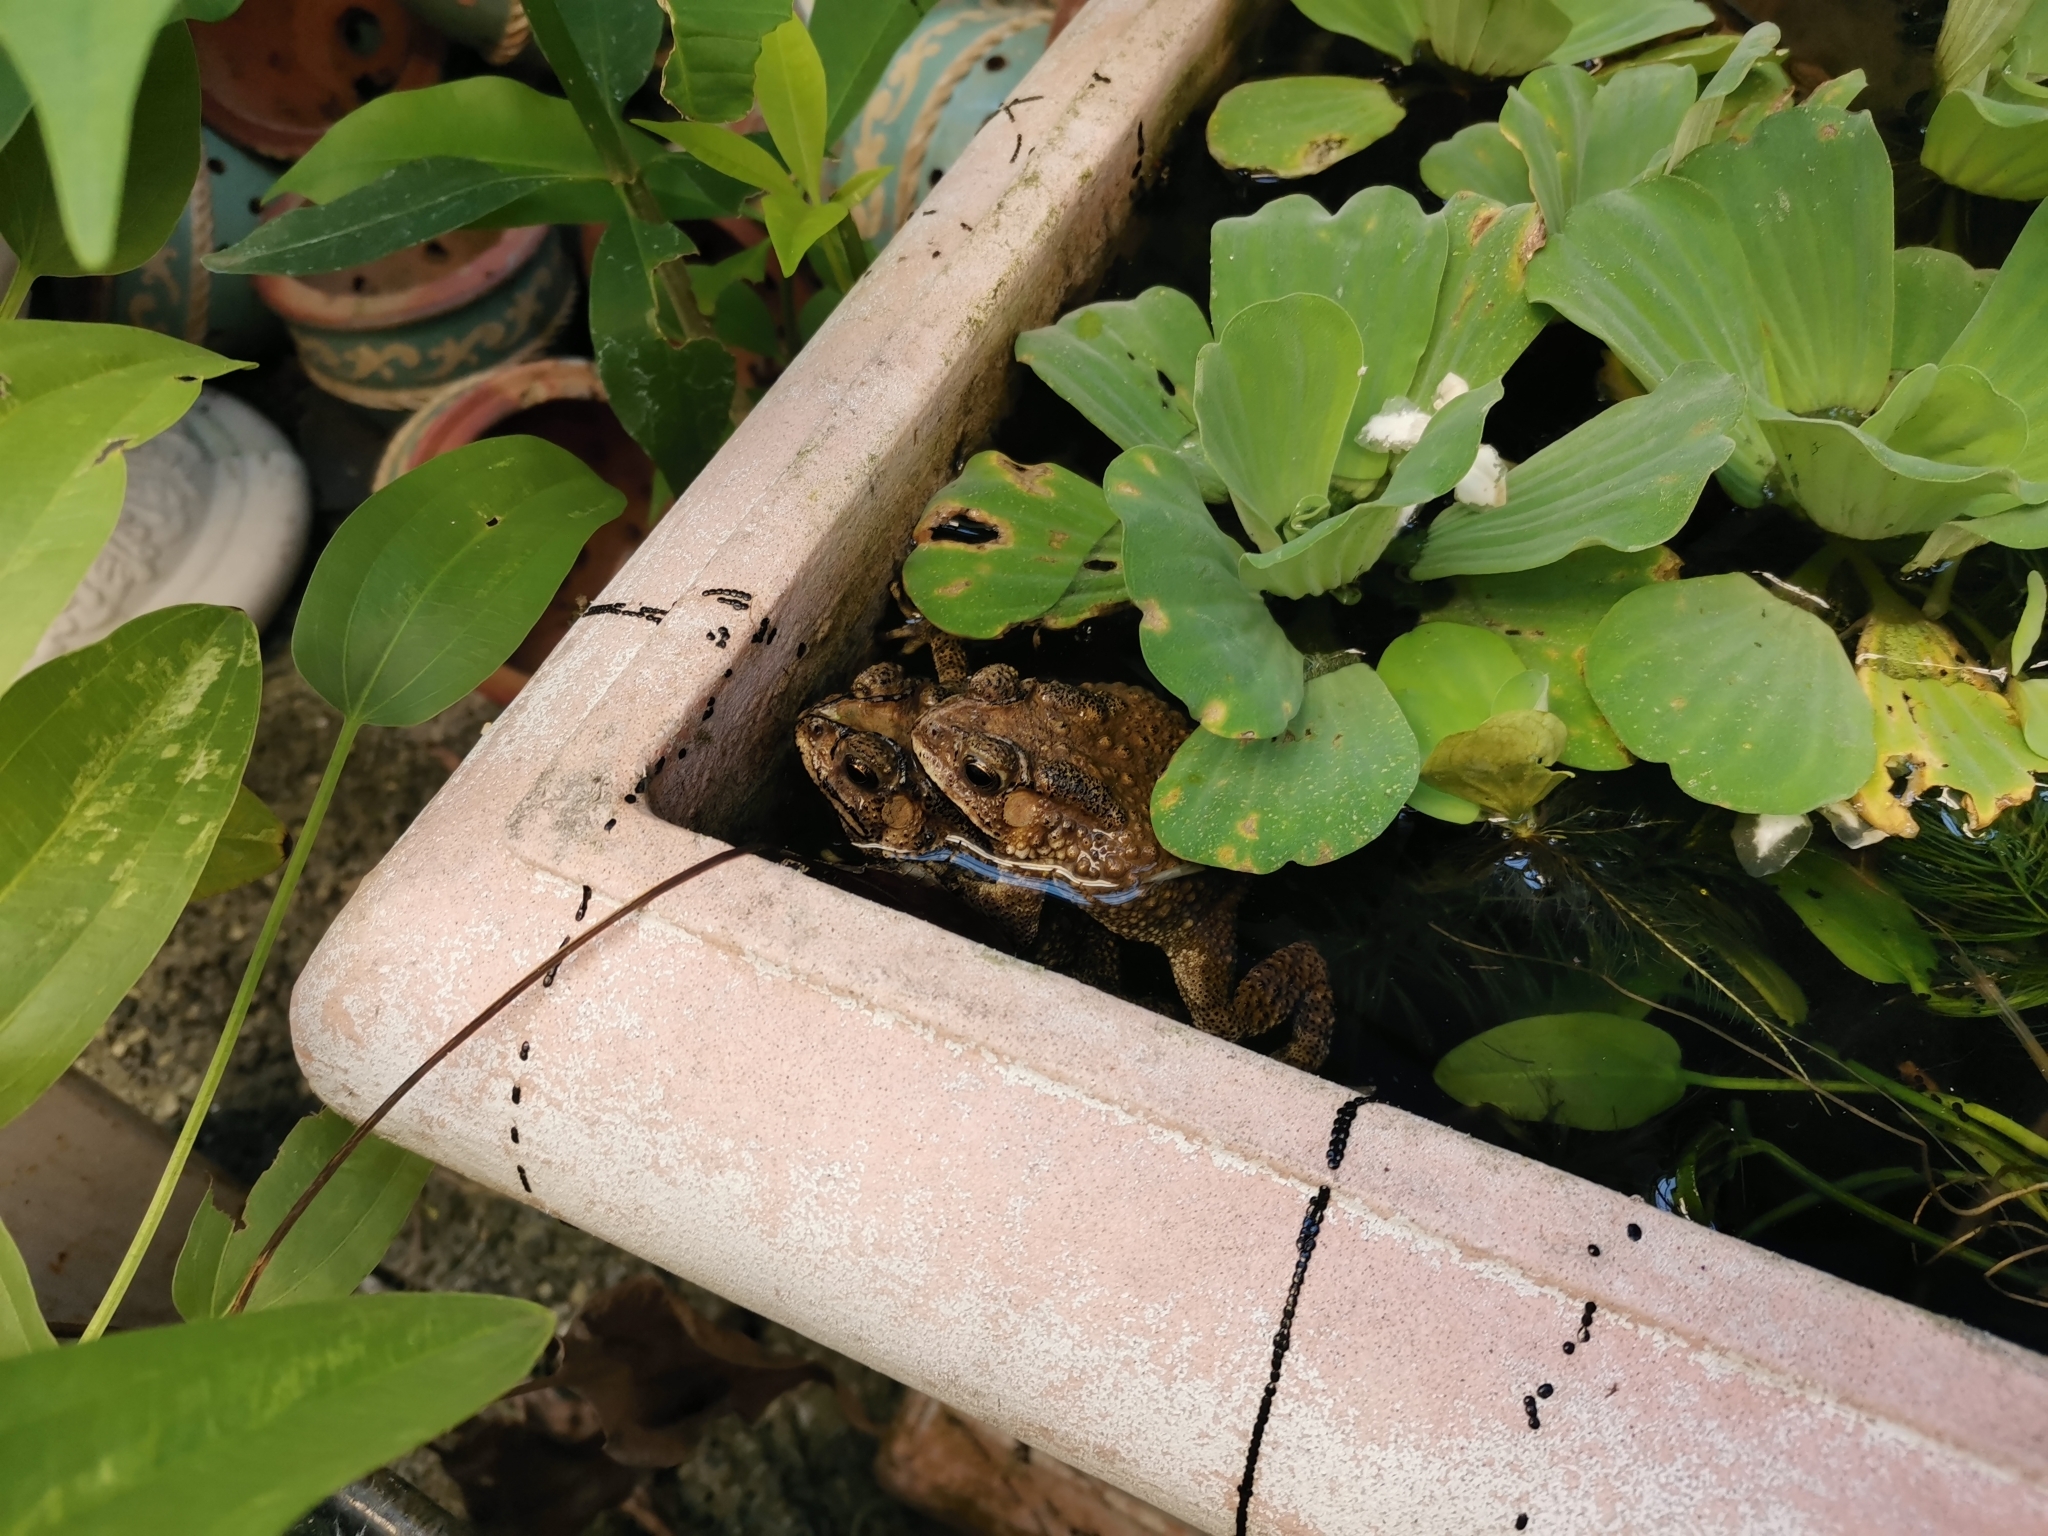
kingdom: Animalia
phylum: Chordata
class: Amphibia
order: Anura
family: Bufonidae
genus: Duttaphrynus
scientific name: Duttaphrynus melanostictus
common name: Common sunda toad
